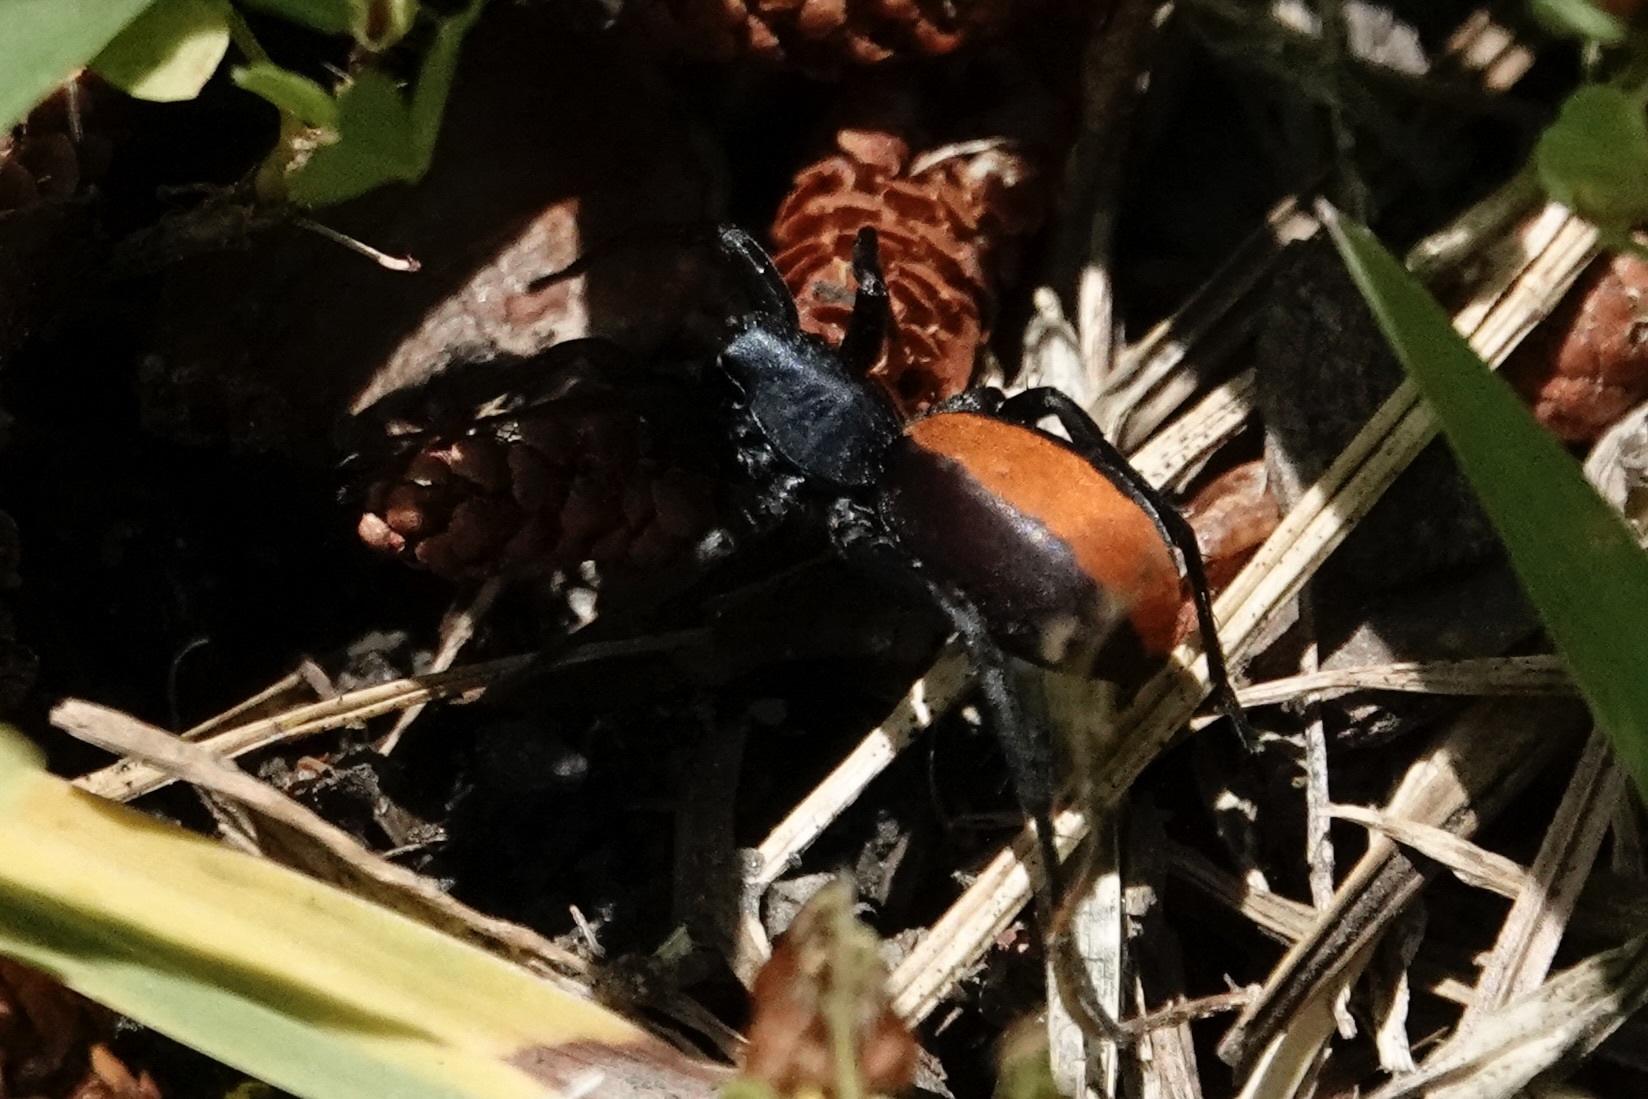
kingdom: Animalia
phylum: Arthropoda
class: Arachnida
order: Araneae
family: Corinnidae
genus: Castianeira
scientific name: Castianeira descripta
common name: Red-spotted ant-mimic sac spider
